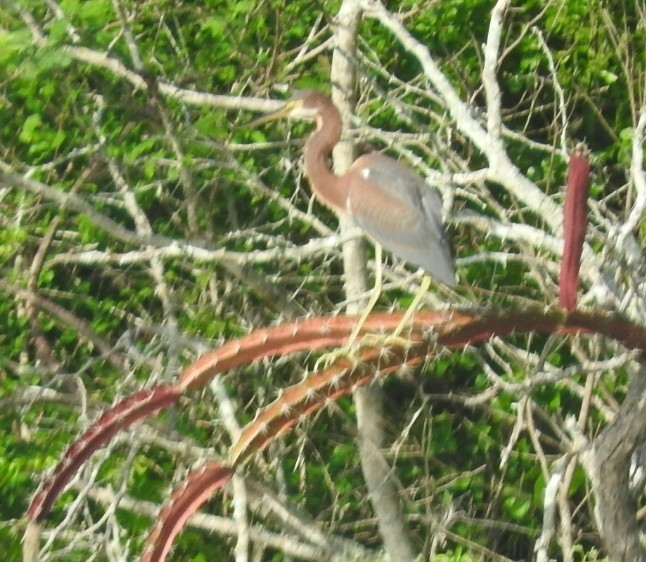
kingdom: Animalia
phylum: Chordata
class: Aves
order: Pelecaniformes
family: Ardeidae
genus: Egretta
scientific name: Egretta tricolor
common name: Tricolored heron
